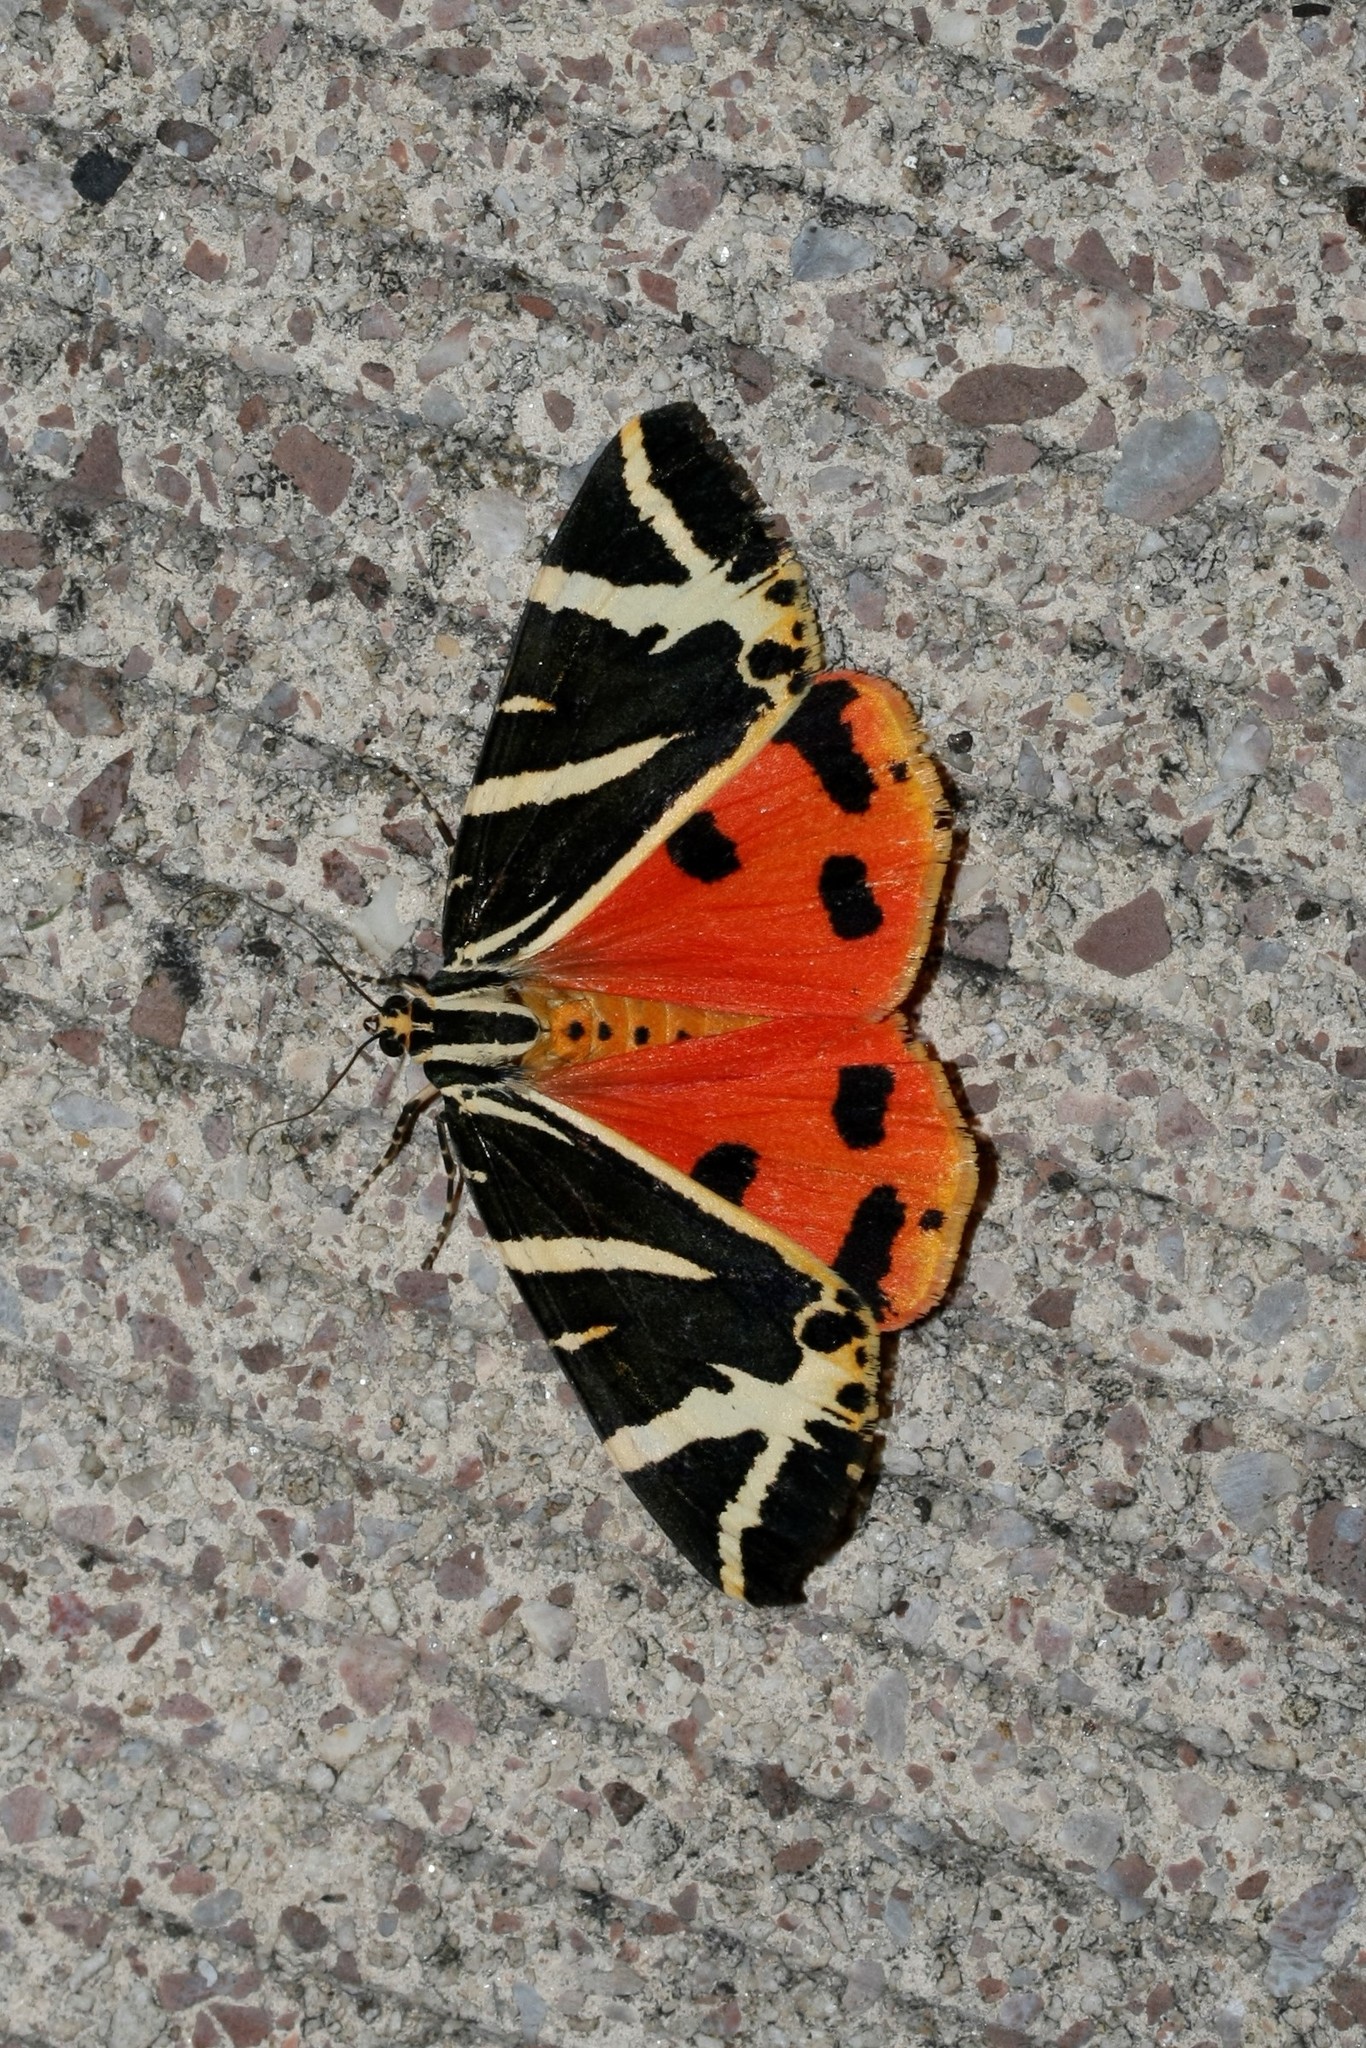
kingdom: Animalia
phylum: Arthropoda
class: Insecta
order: Lepidoptera
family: Erebidae
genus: Euplagia
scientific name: Euplagia quadripunctaria
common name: Jersey tiger
